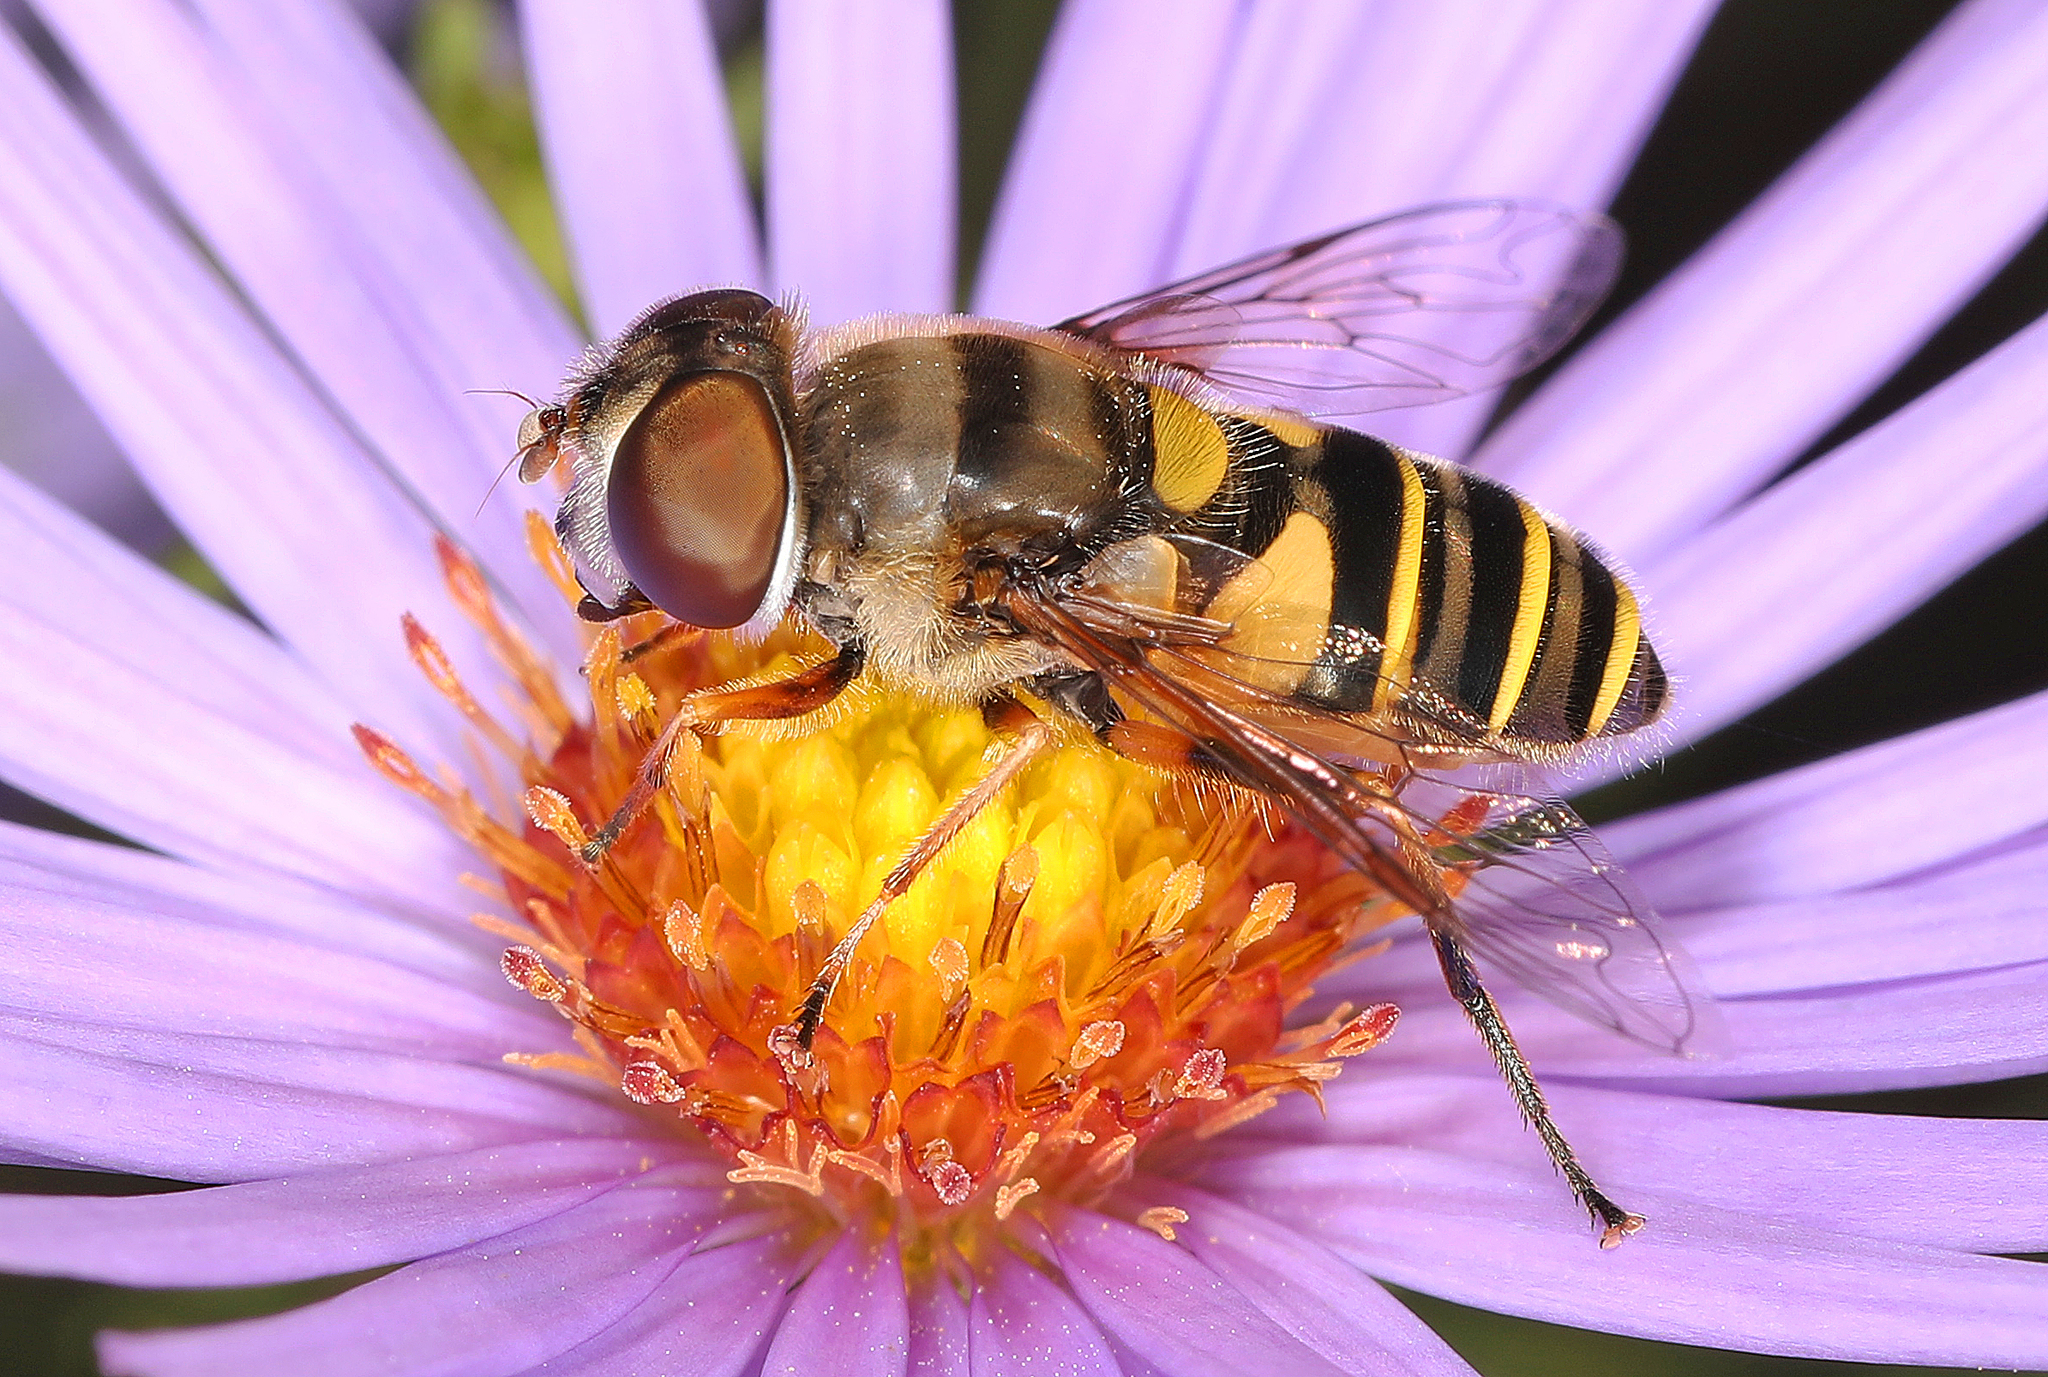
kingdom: Animalia
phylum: Arthropoda
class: Insecta
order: Diptera
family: Syrphidae
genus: Eristalis
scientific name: Eristalis transversa
